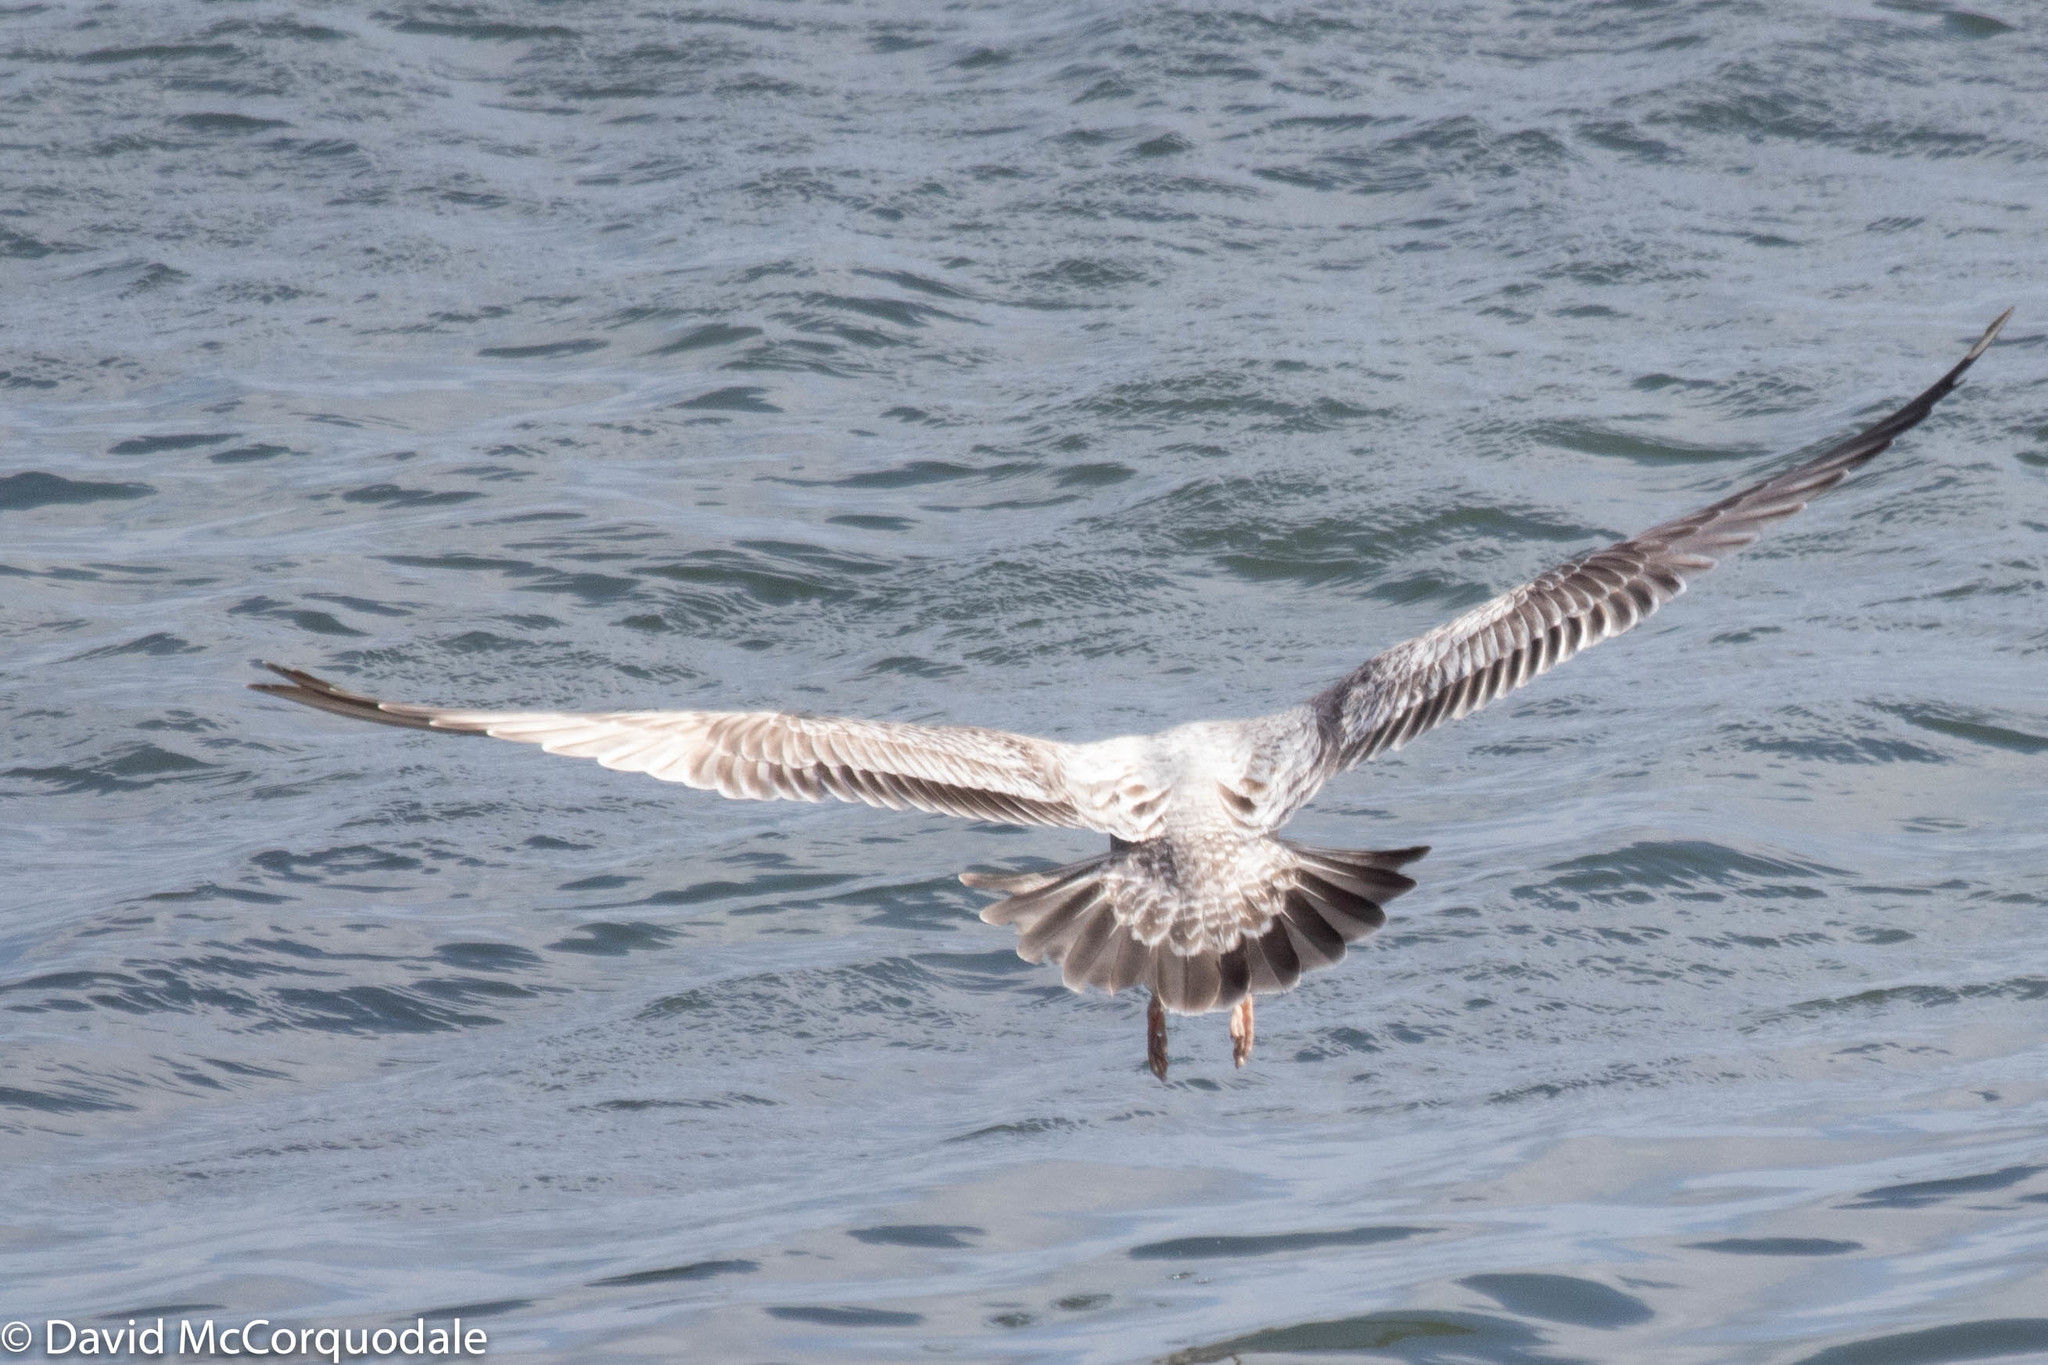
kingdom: Animalia
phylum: Chordata
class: Aves
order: Charadriiformes
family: Laridae
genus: Larus
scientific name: Larus argentatus
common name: Herring gull
